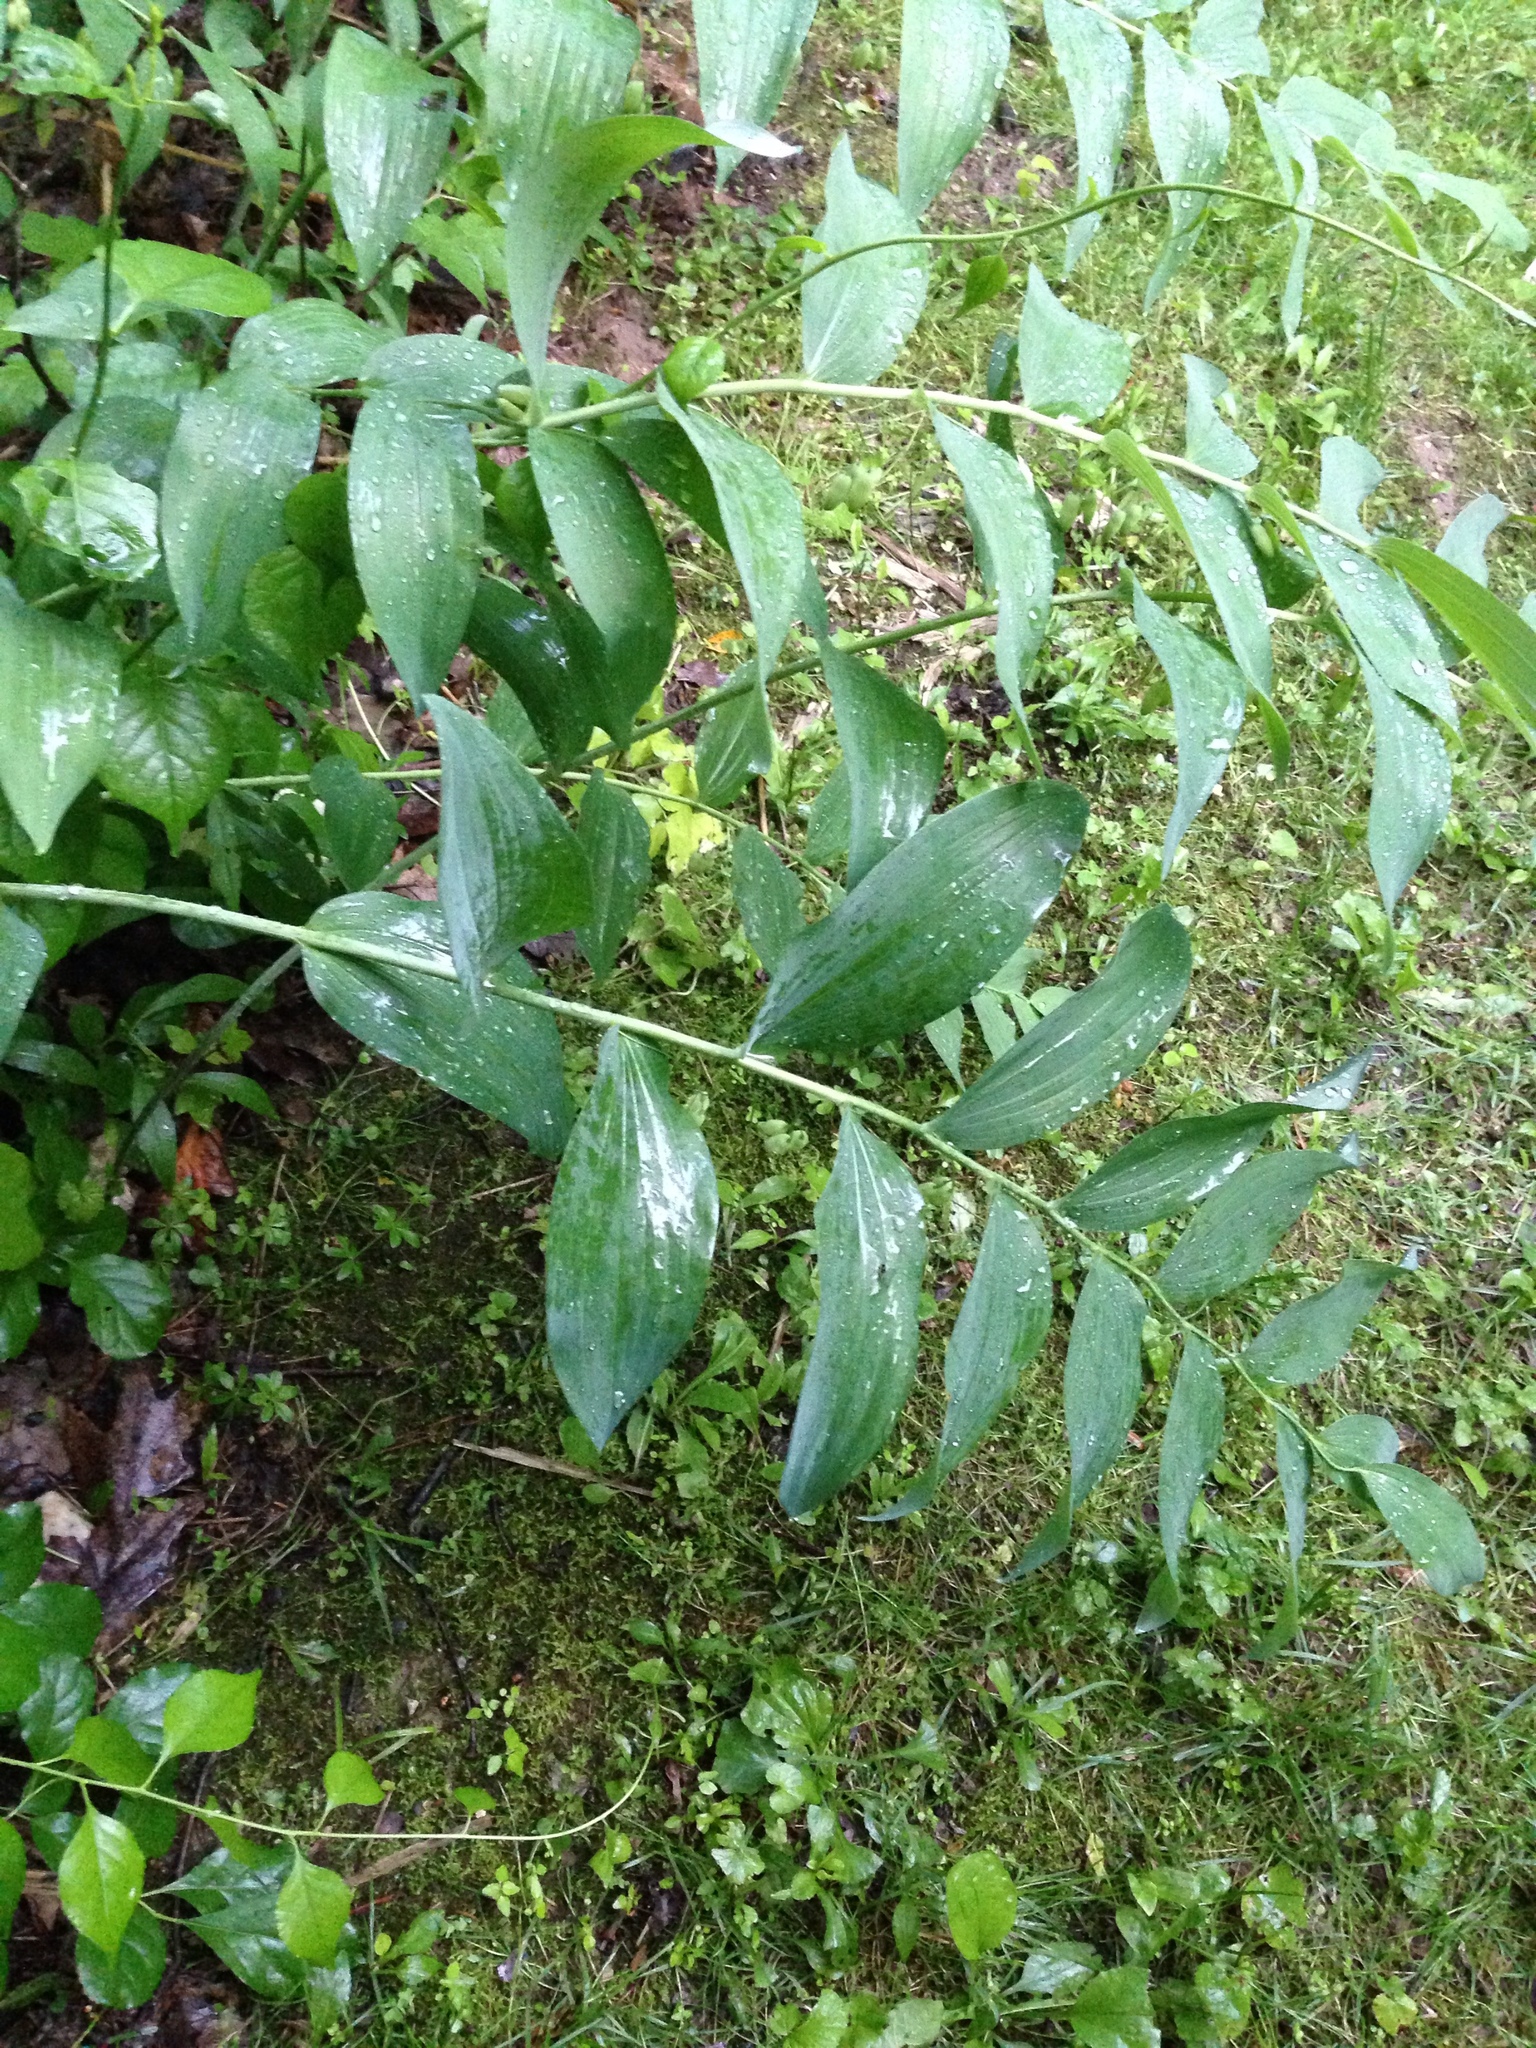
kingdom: Plantae
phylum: Tracheophyta
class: Liliopsida
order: Asparagales
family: Asparagaceae
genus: Polygonatum
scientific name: Polygonatum biflorum
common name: American solomon's-seal
